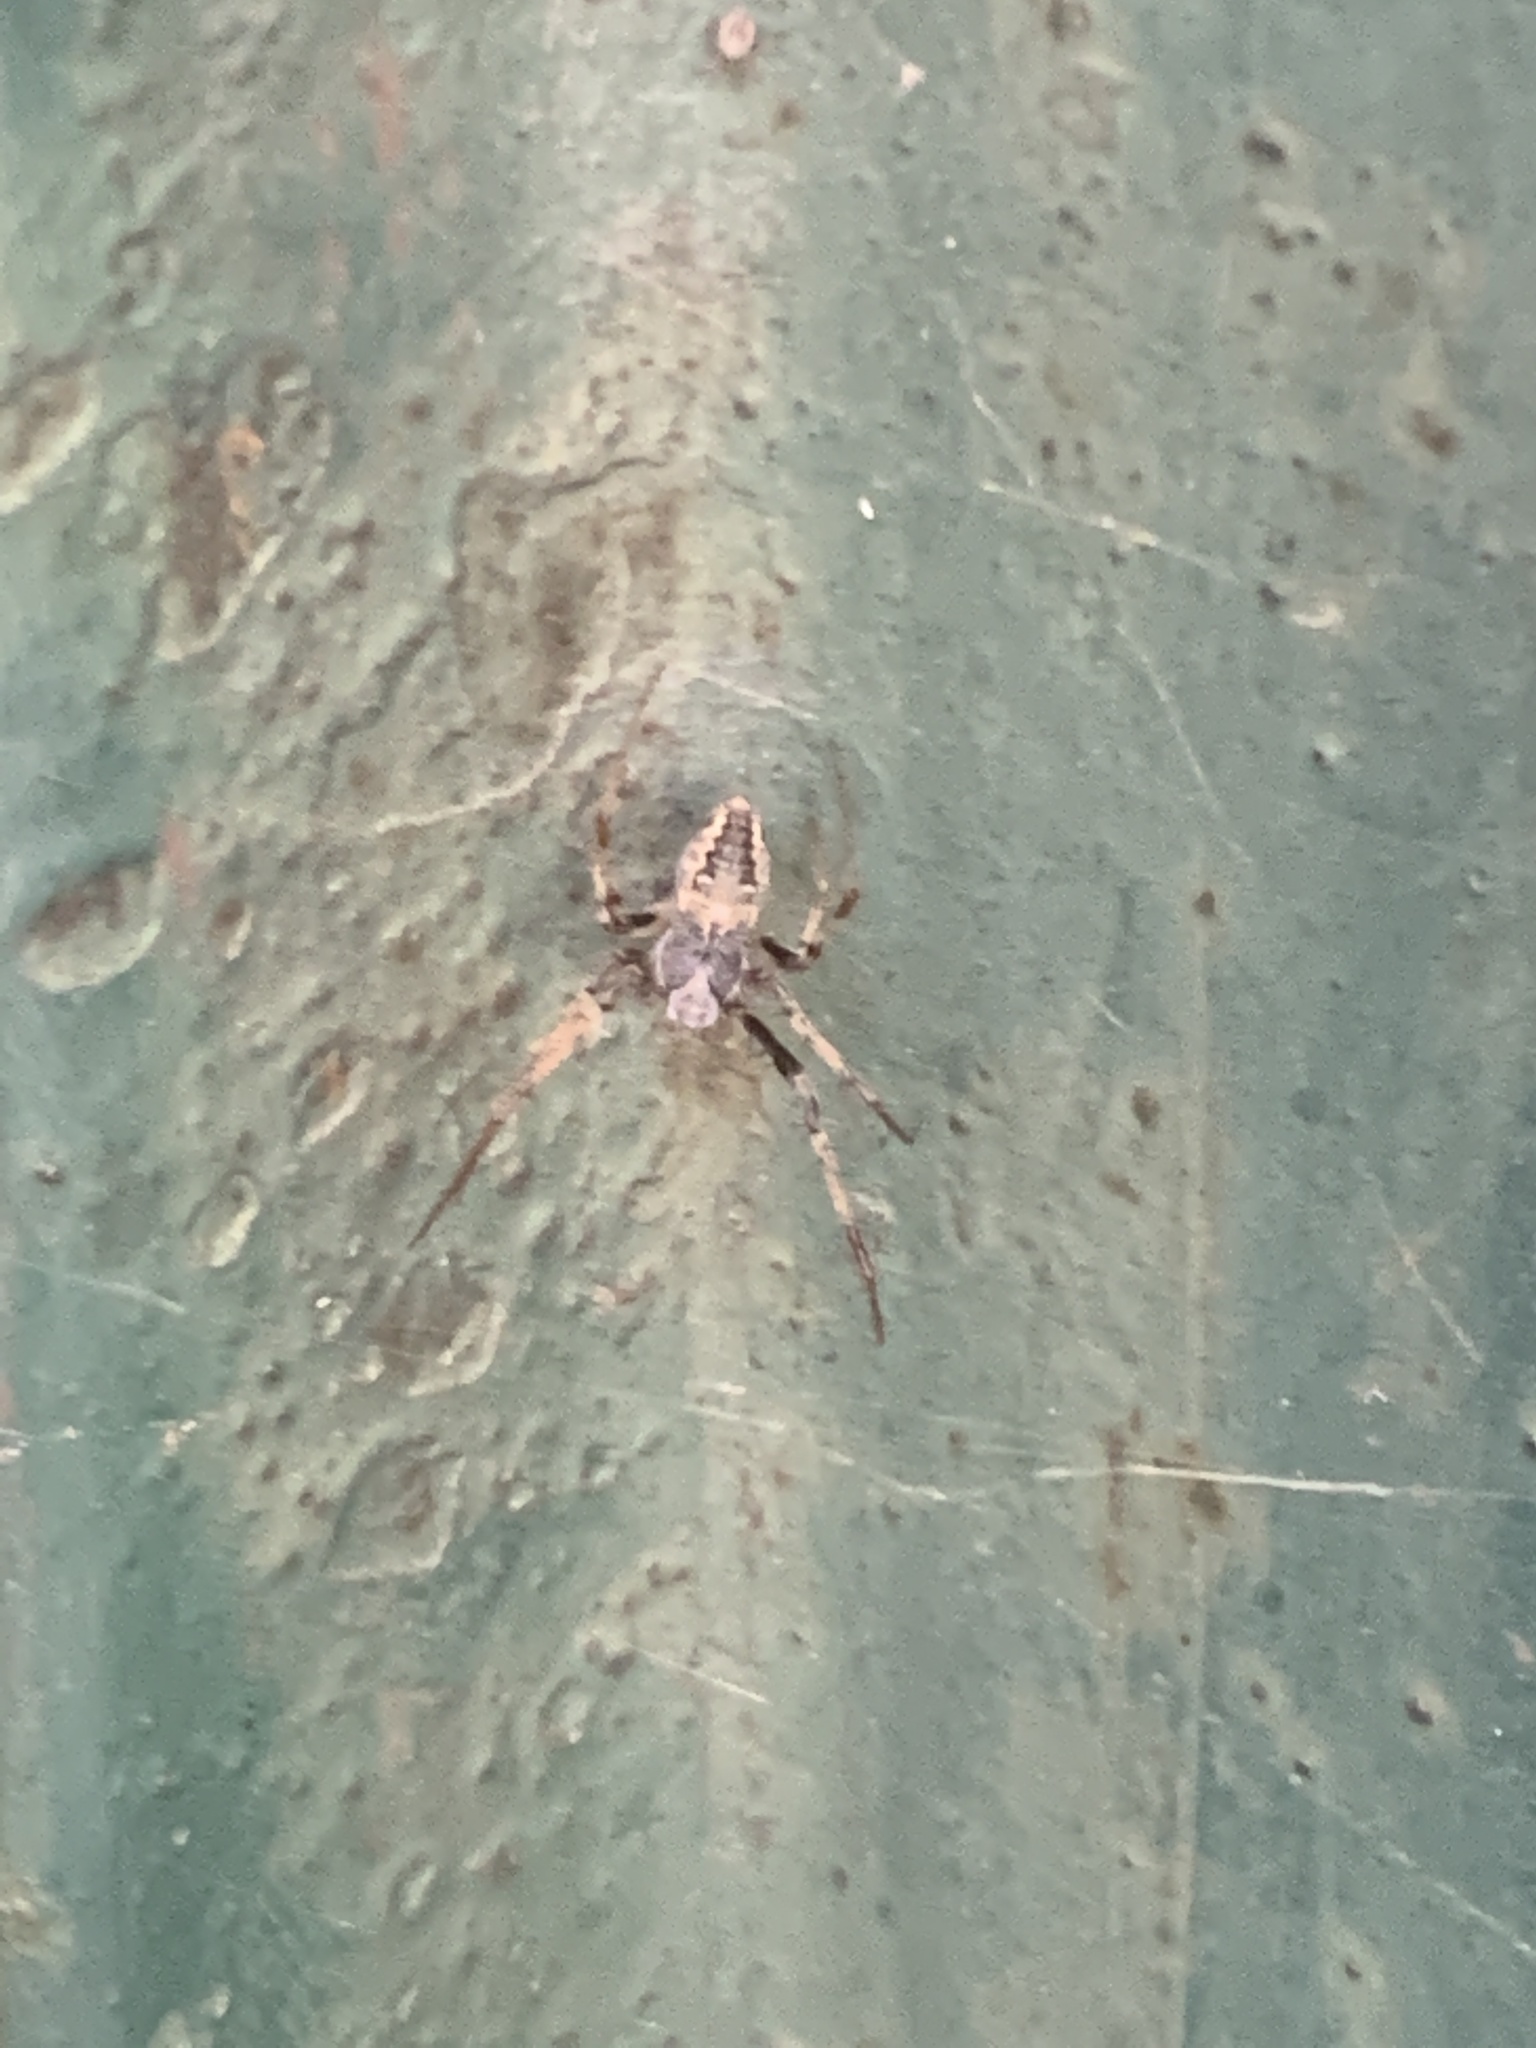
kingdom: Animalia
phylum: Arthropoda
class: Arachnida
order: Araneae
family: Araneidae
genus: Metepeira
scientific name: Metepeira
